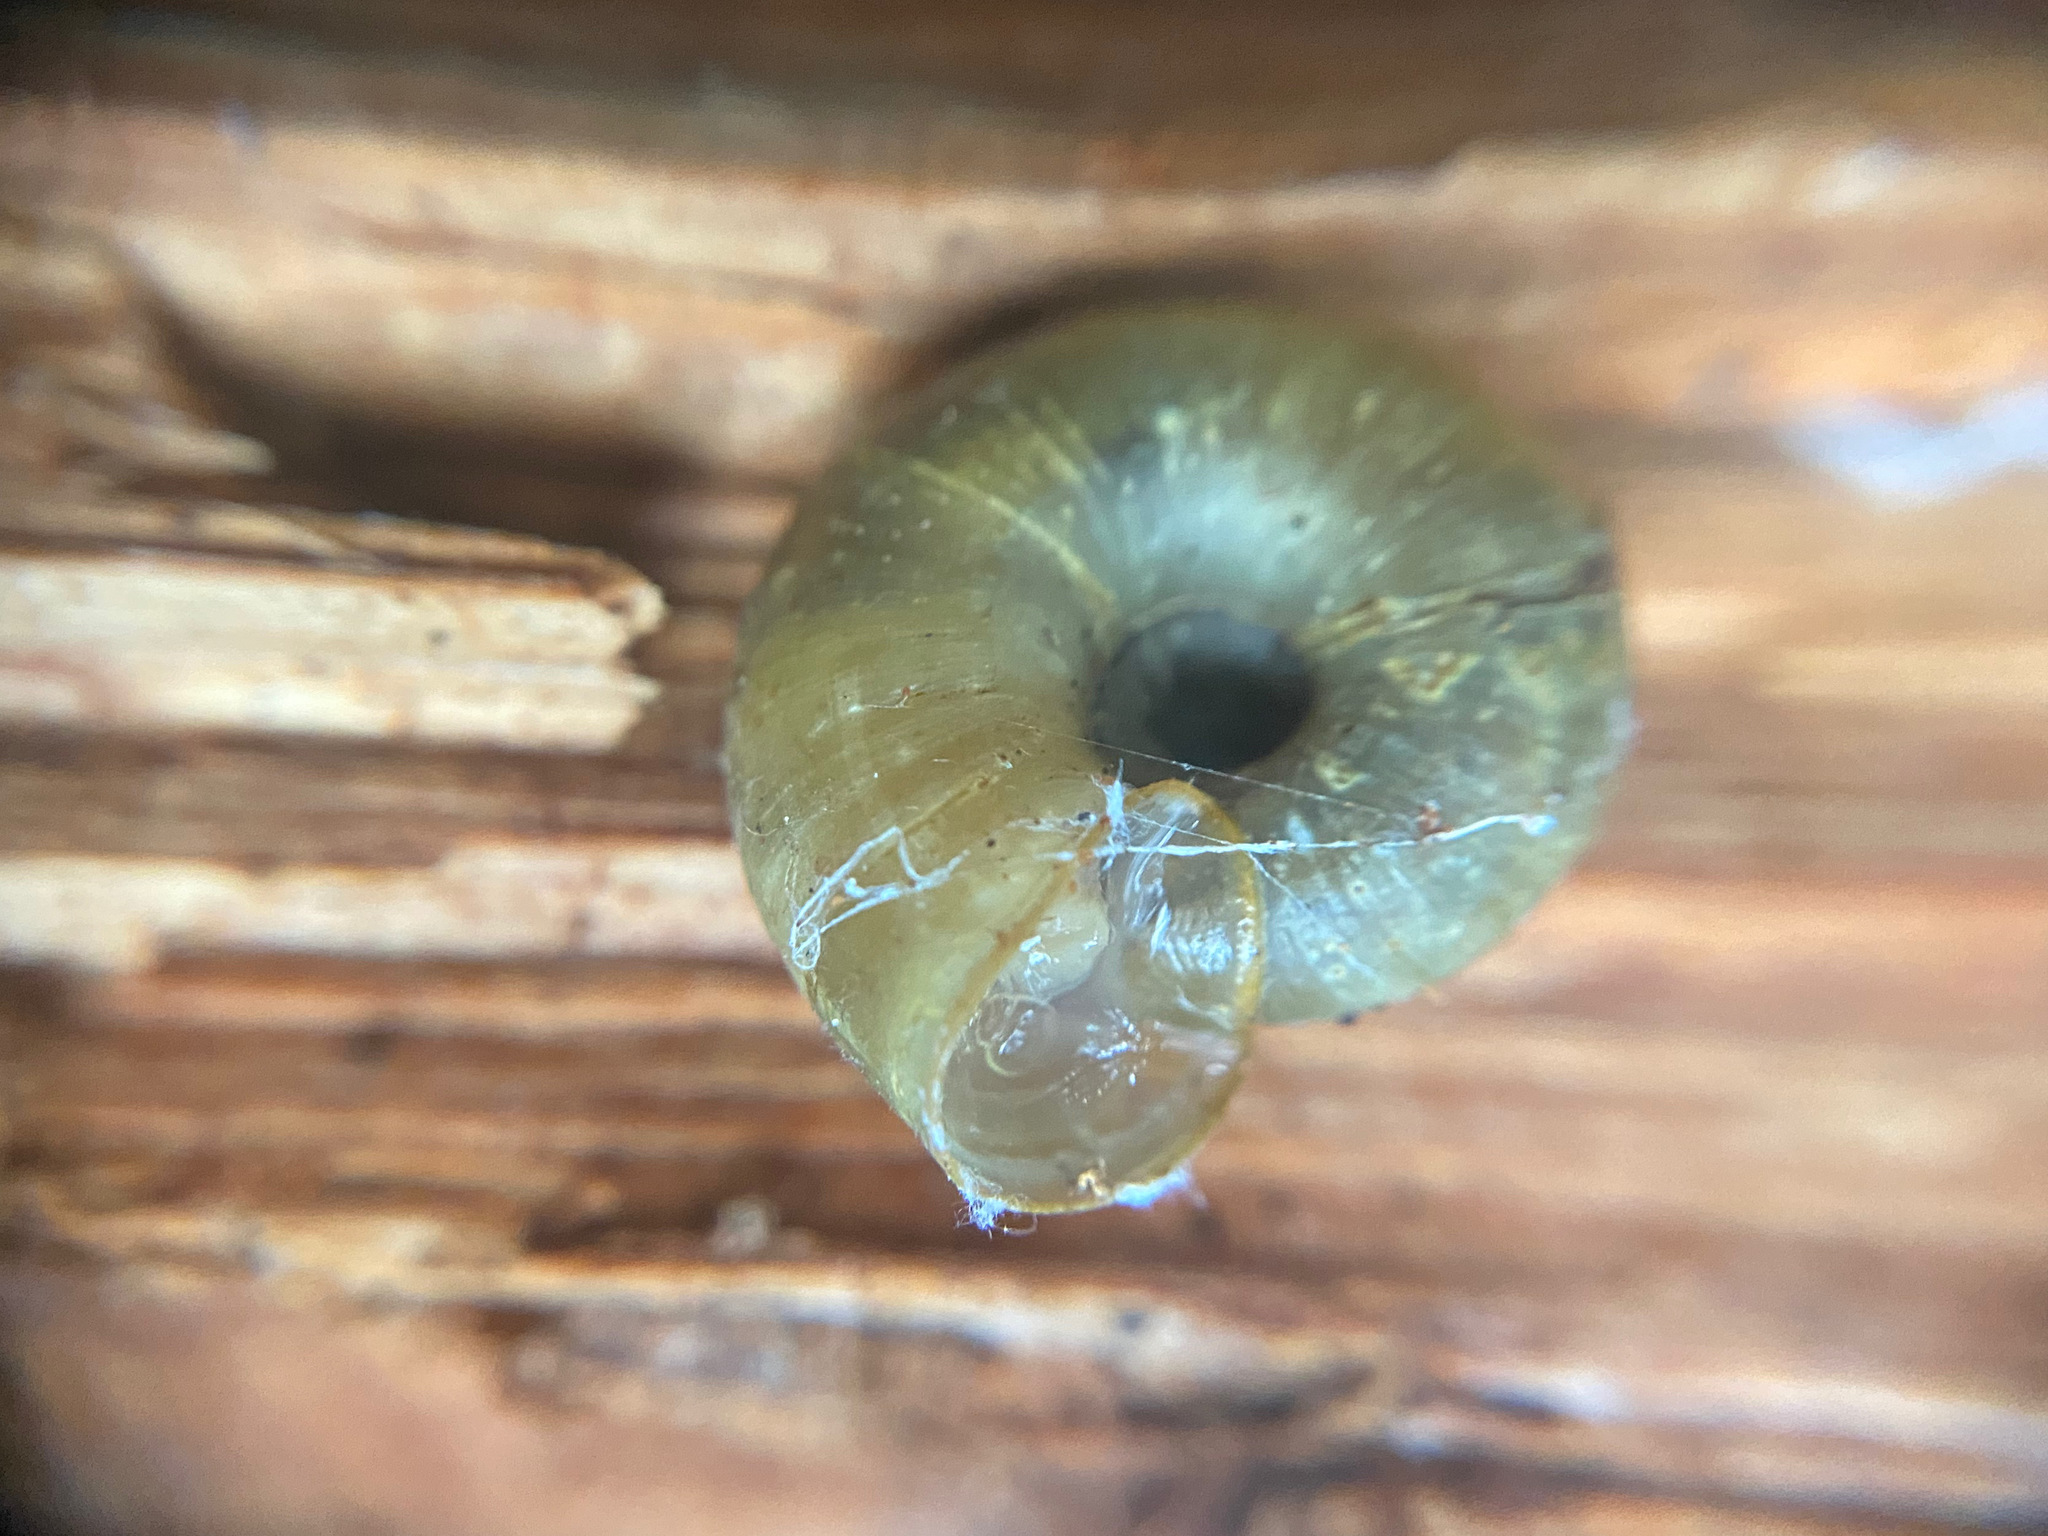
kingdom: Animalia
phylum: Mollusca
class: Gastropoda
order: Stylommatophora
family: Haplotrematidae
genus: Ancotrema
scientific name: Ancotrema sportella
